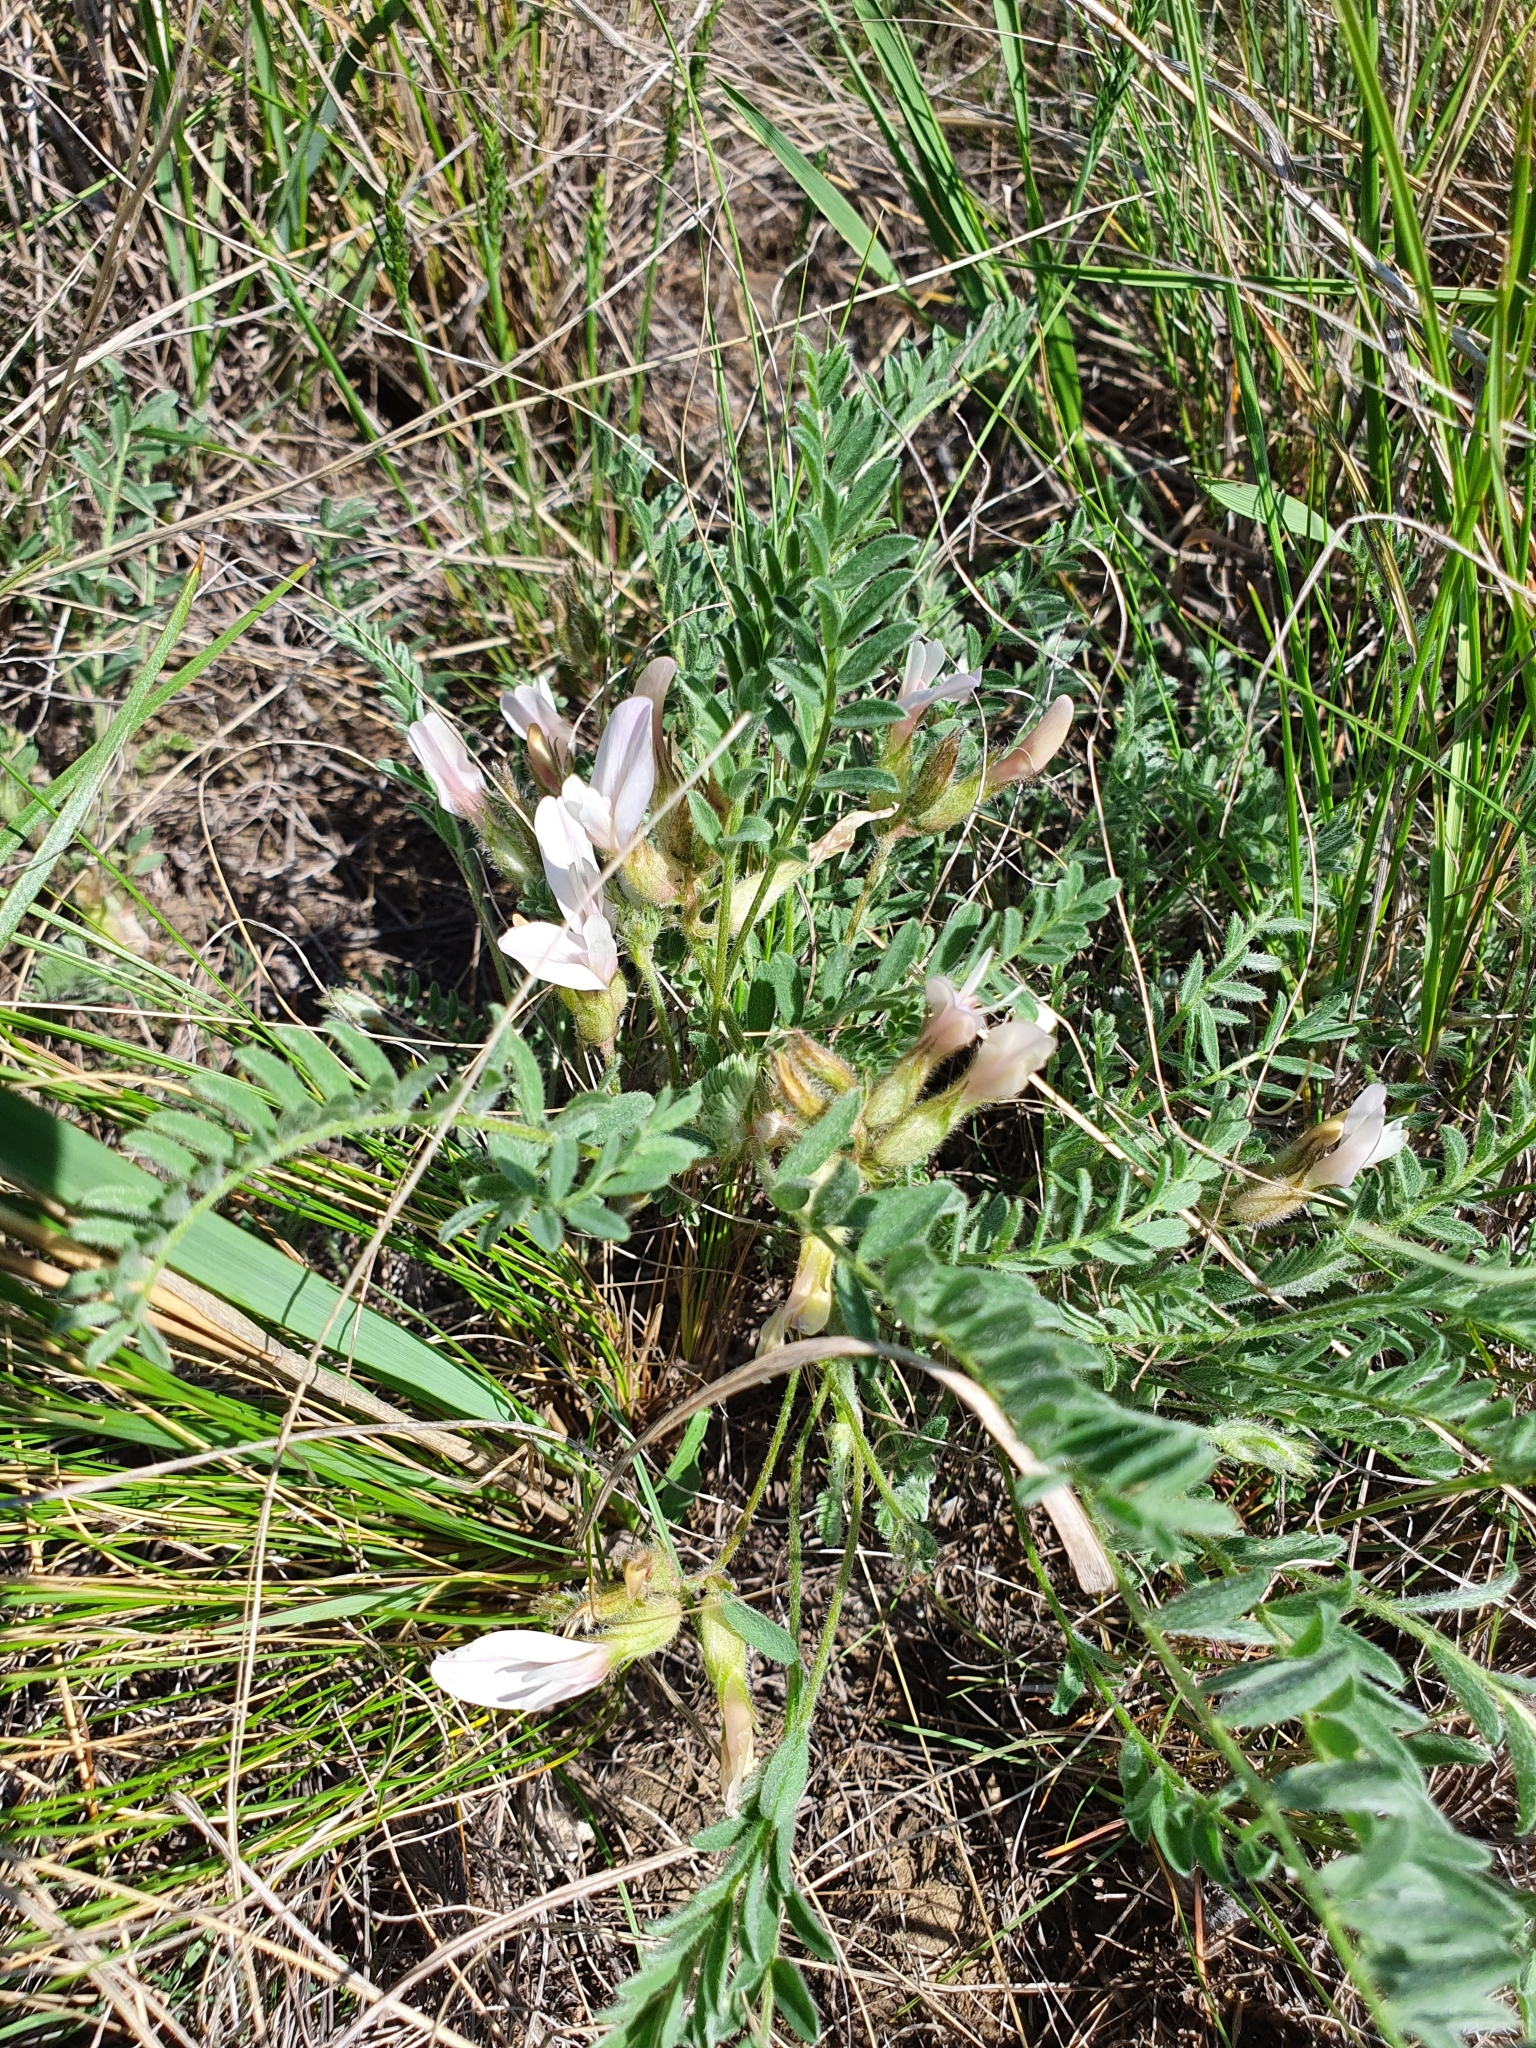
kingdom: Plantae
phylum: Tracheophyta
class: Magnoliopsida
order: Fabales
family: Fabaceae
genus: Astragalus
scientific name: Astragalus rupifragus
